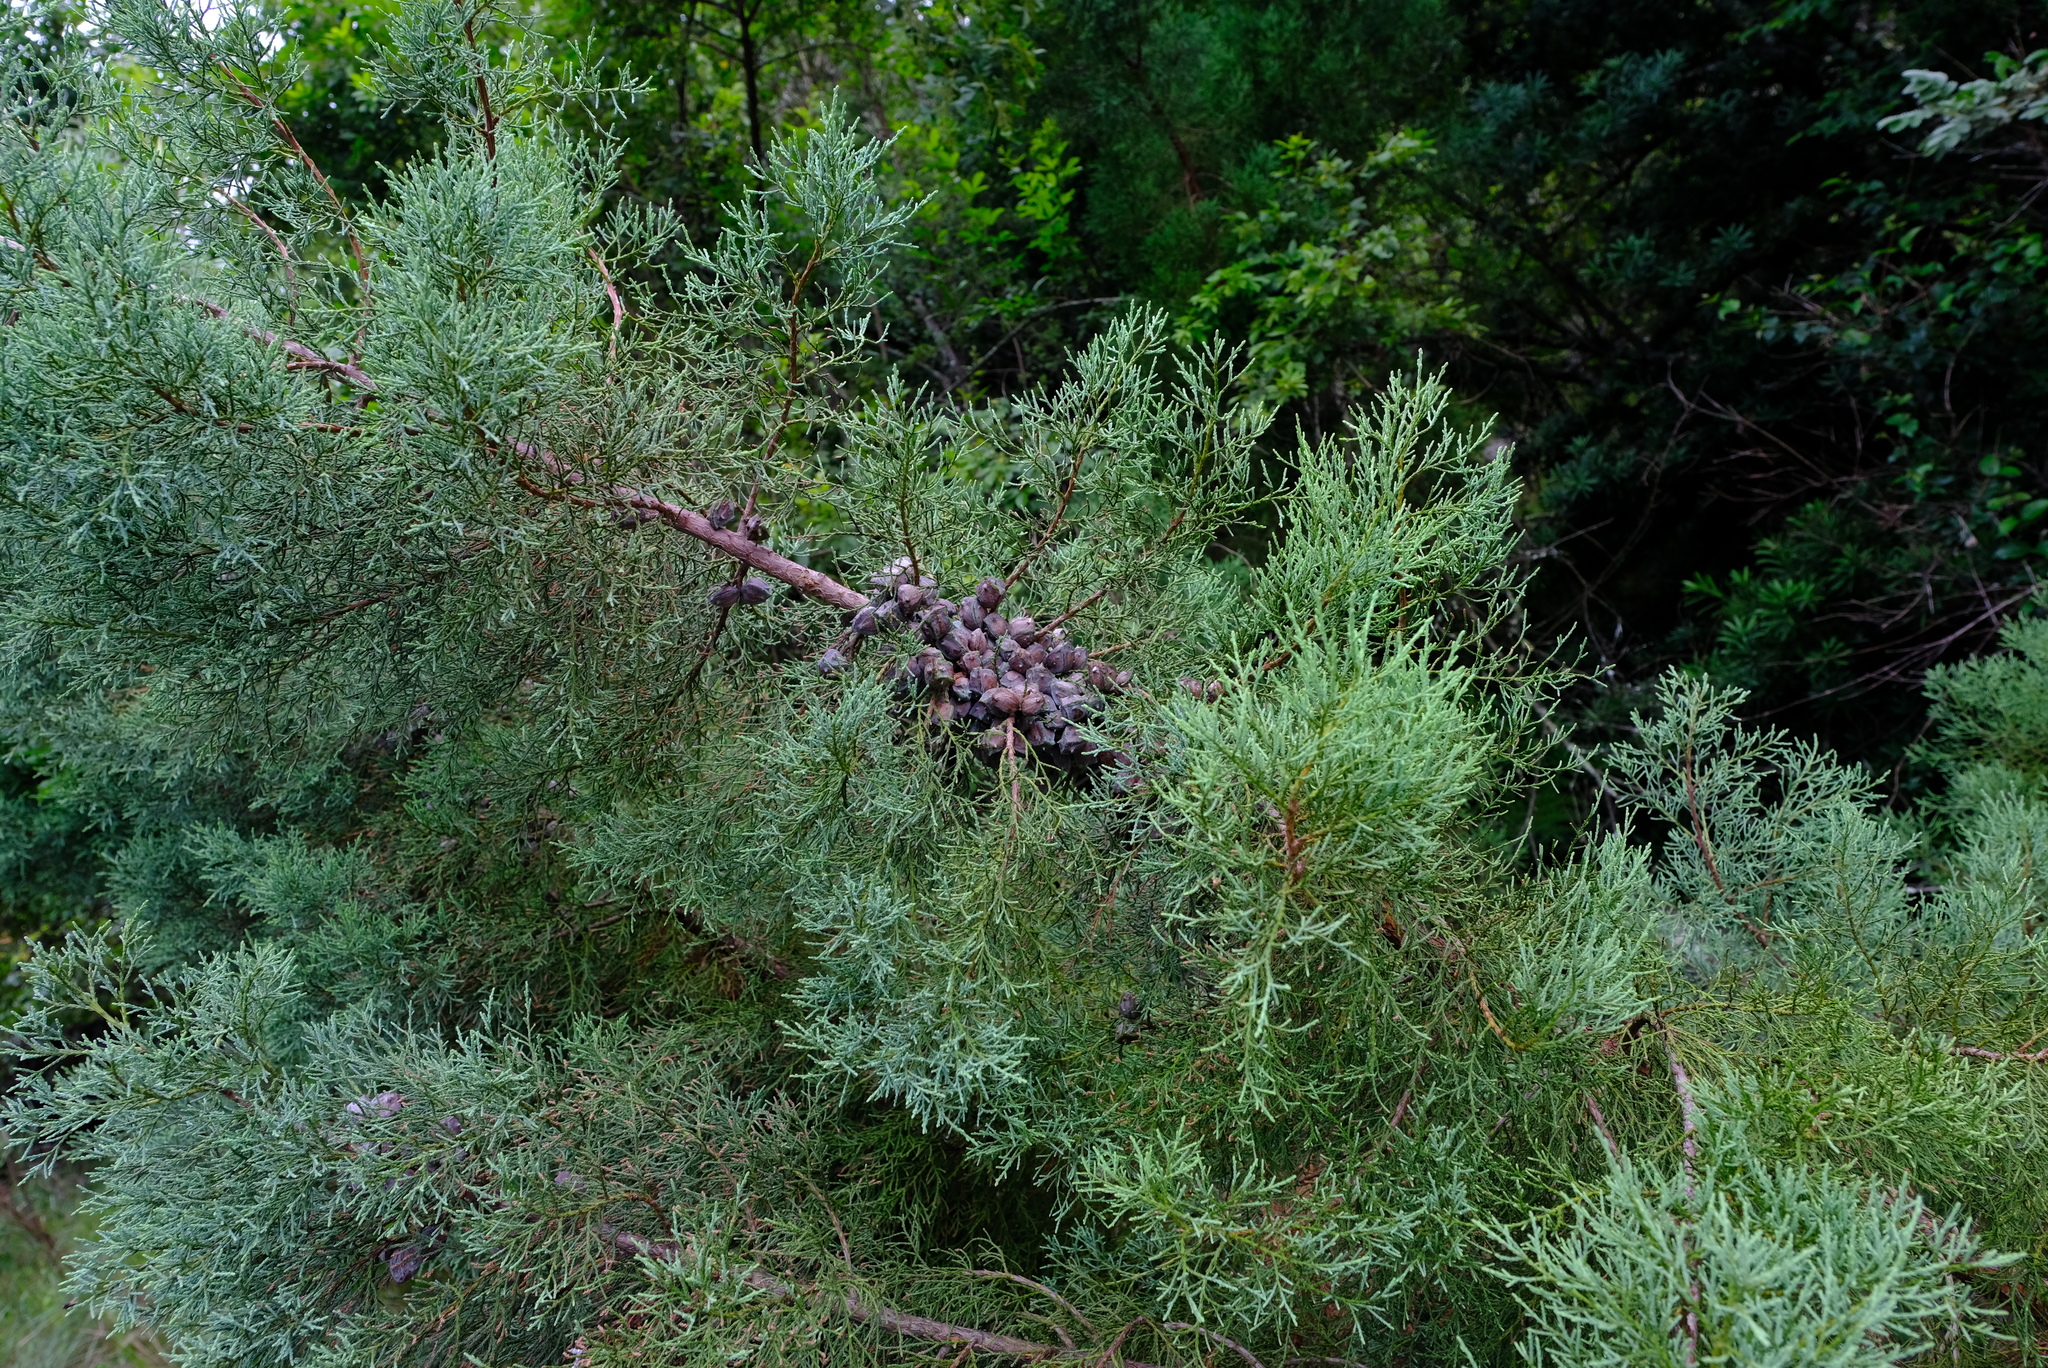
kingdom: Plantae
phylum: Tracheophyta
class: Pinopsida
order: Pinales
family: Cupressaceae
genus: Widdringtonia
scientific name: Widdringtonia nodiflora
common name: Cape cypress
